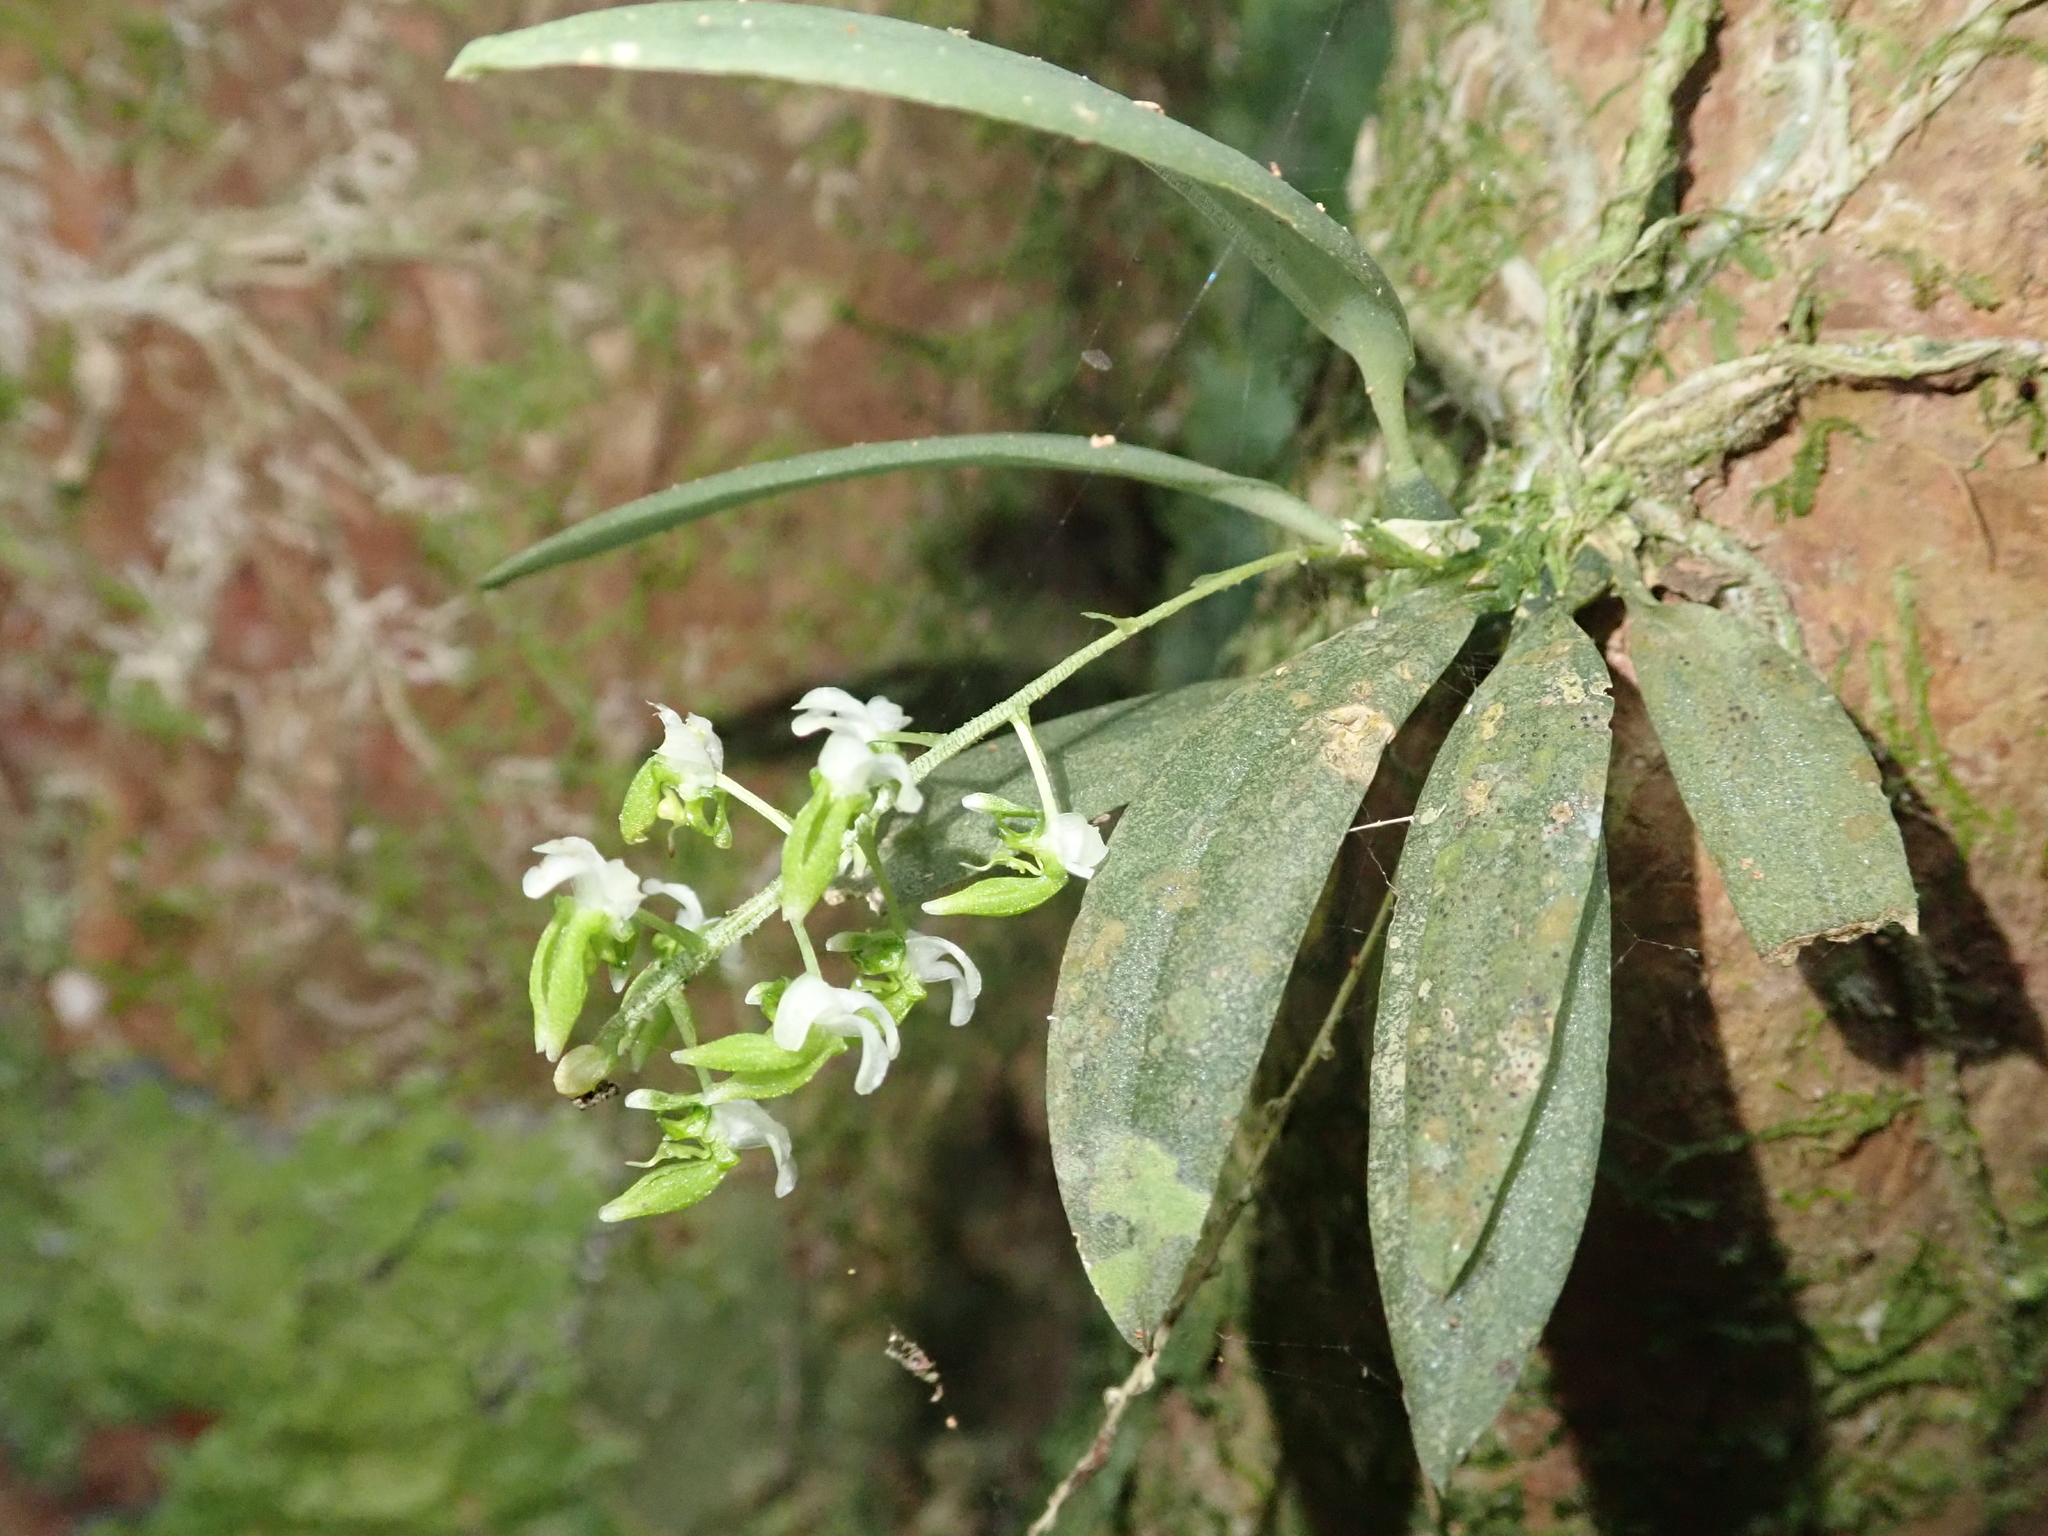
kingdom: Plantae
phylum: Tracheophyta
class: Liliopsida
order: Asparagales
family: Orchidaceae
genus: Zygostates
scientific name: Zygostates pellucida
